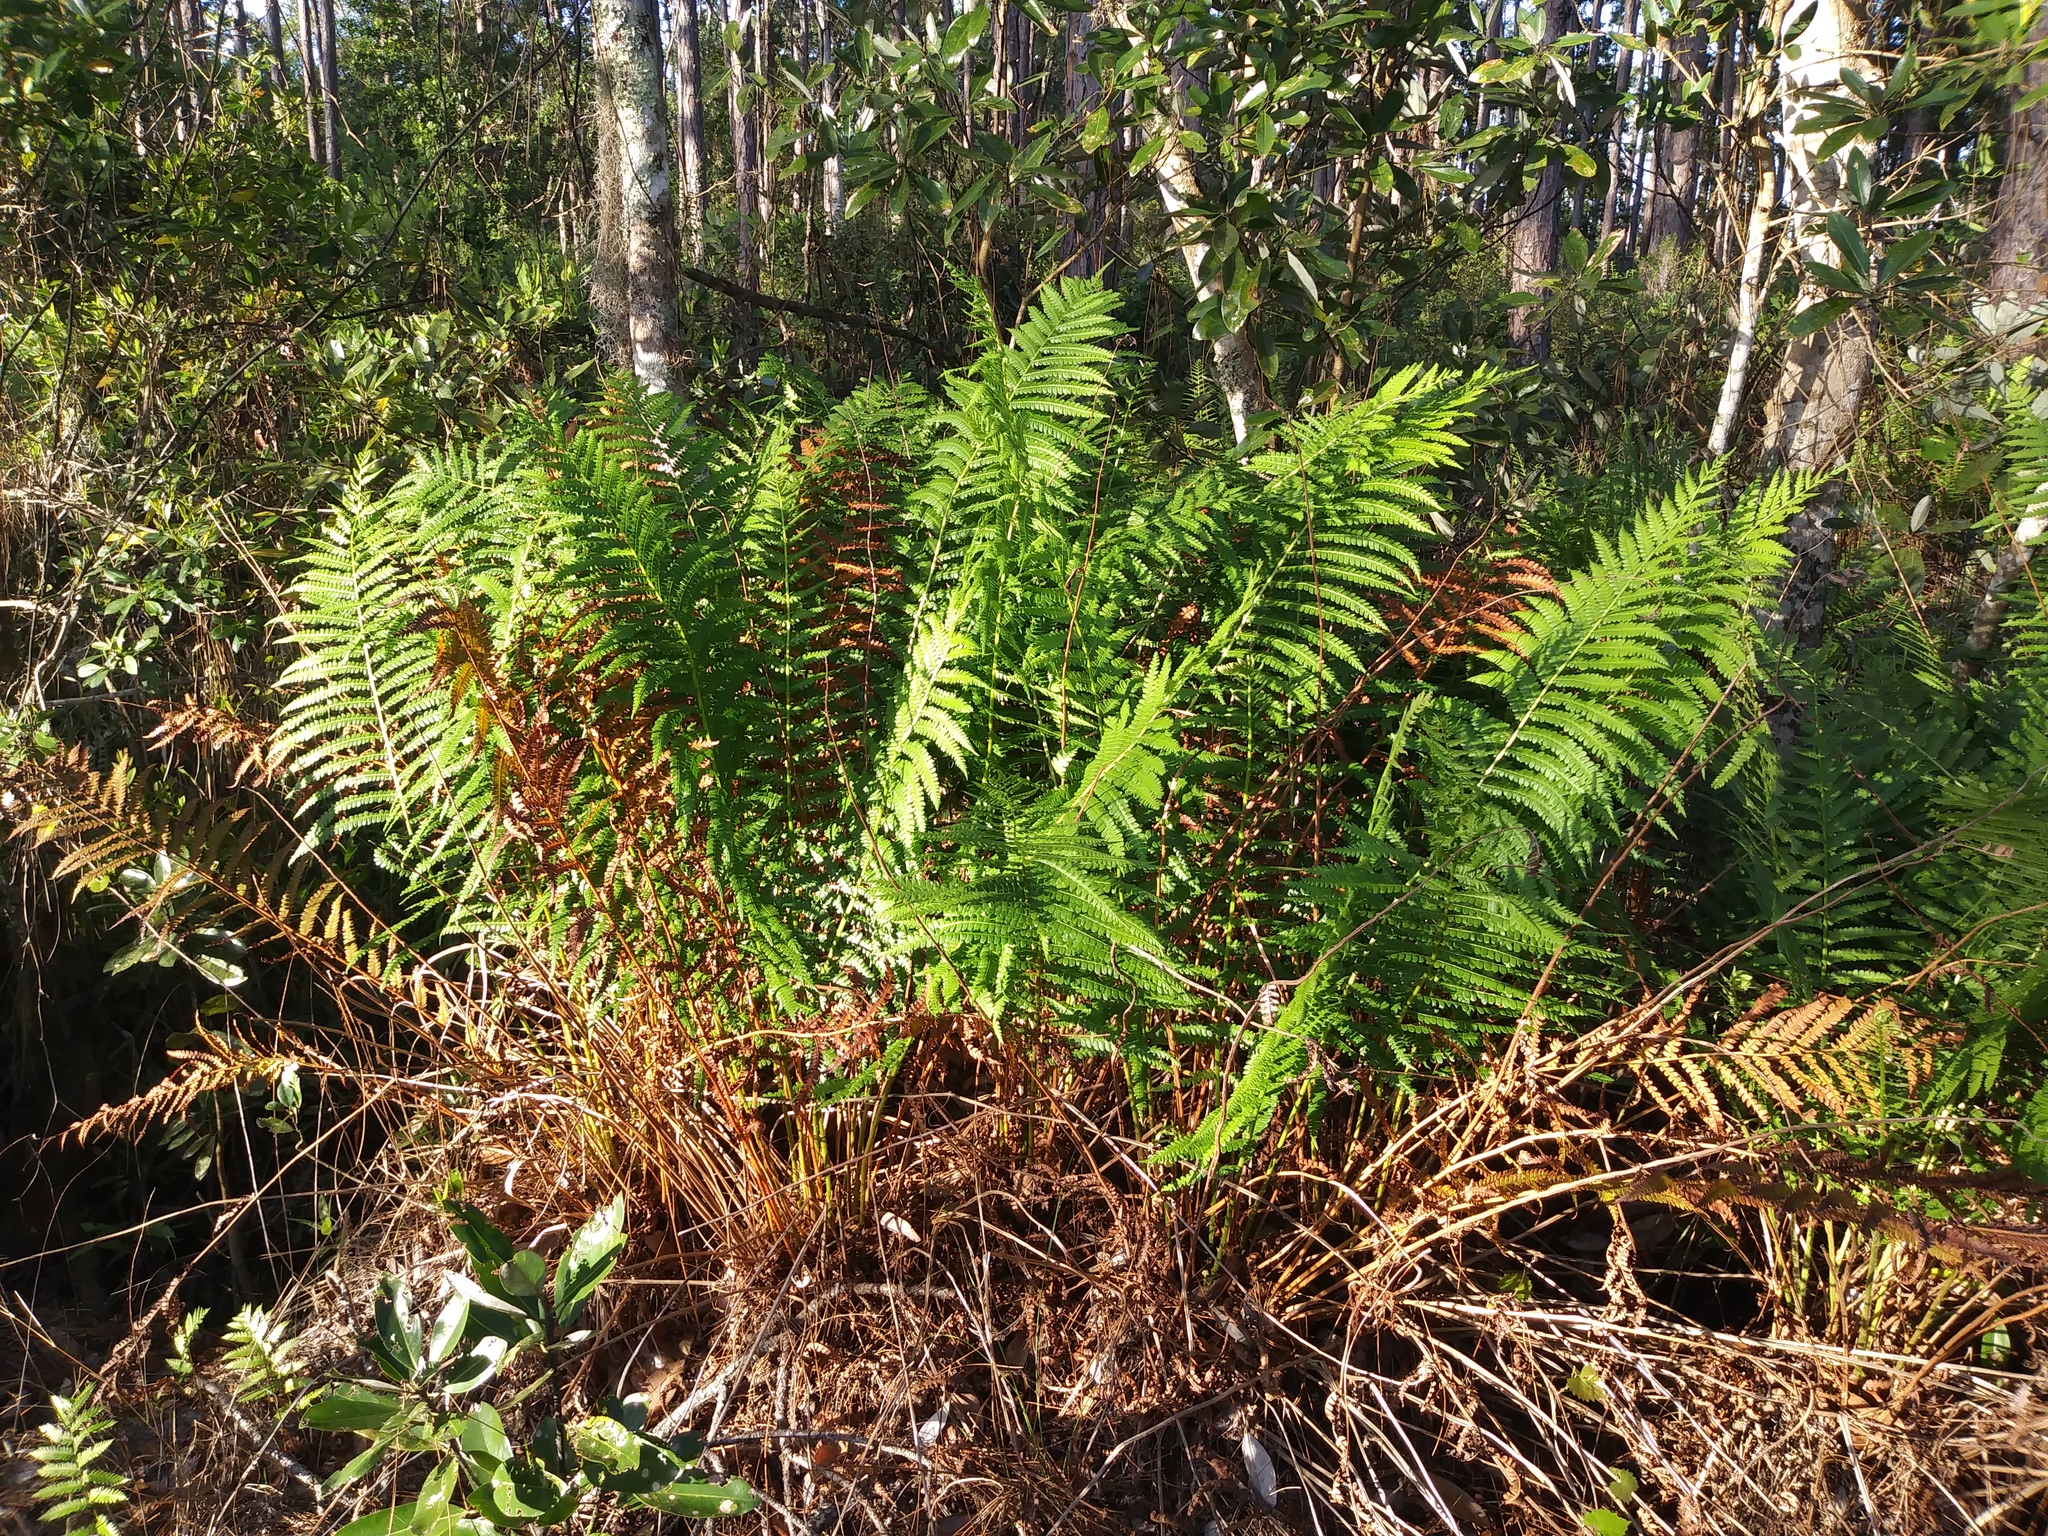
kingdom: Plantae
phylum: Tracheophyta
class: Polypodiopsida
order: Osmundales
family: Osmundaceae
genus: Osmundastrum
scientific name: Osmundastrum cinnamomeum
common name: Cinnamon fern
